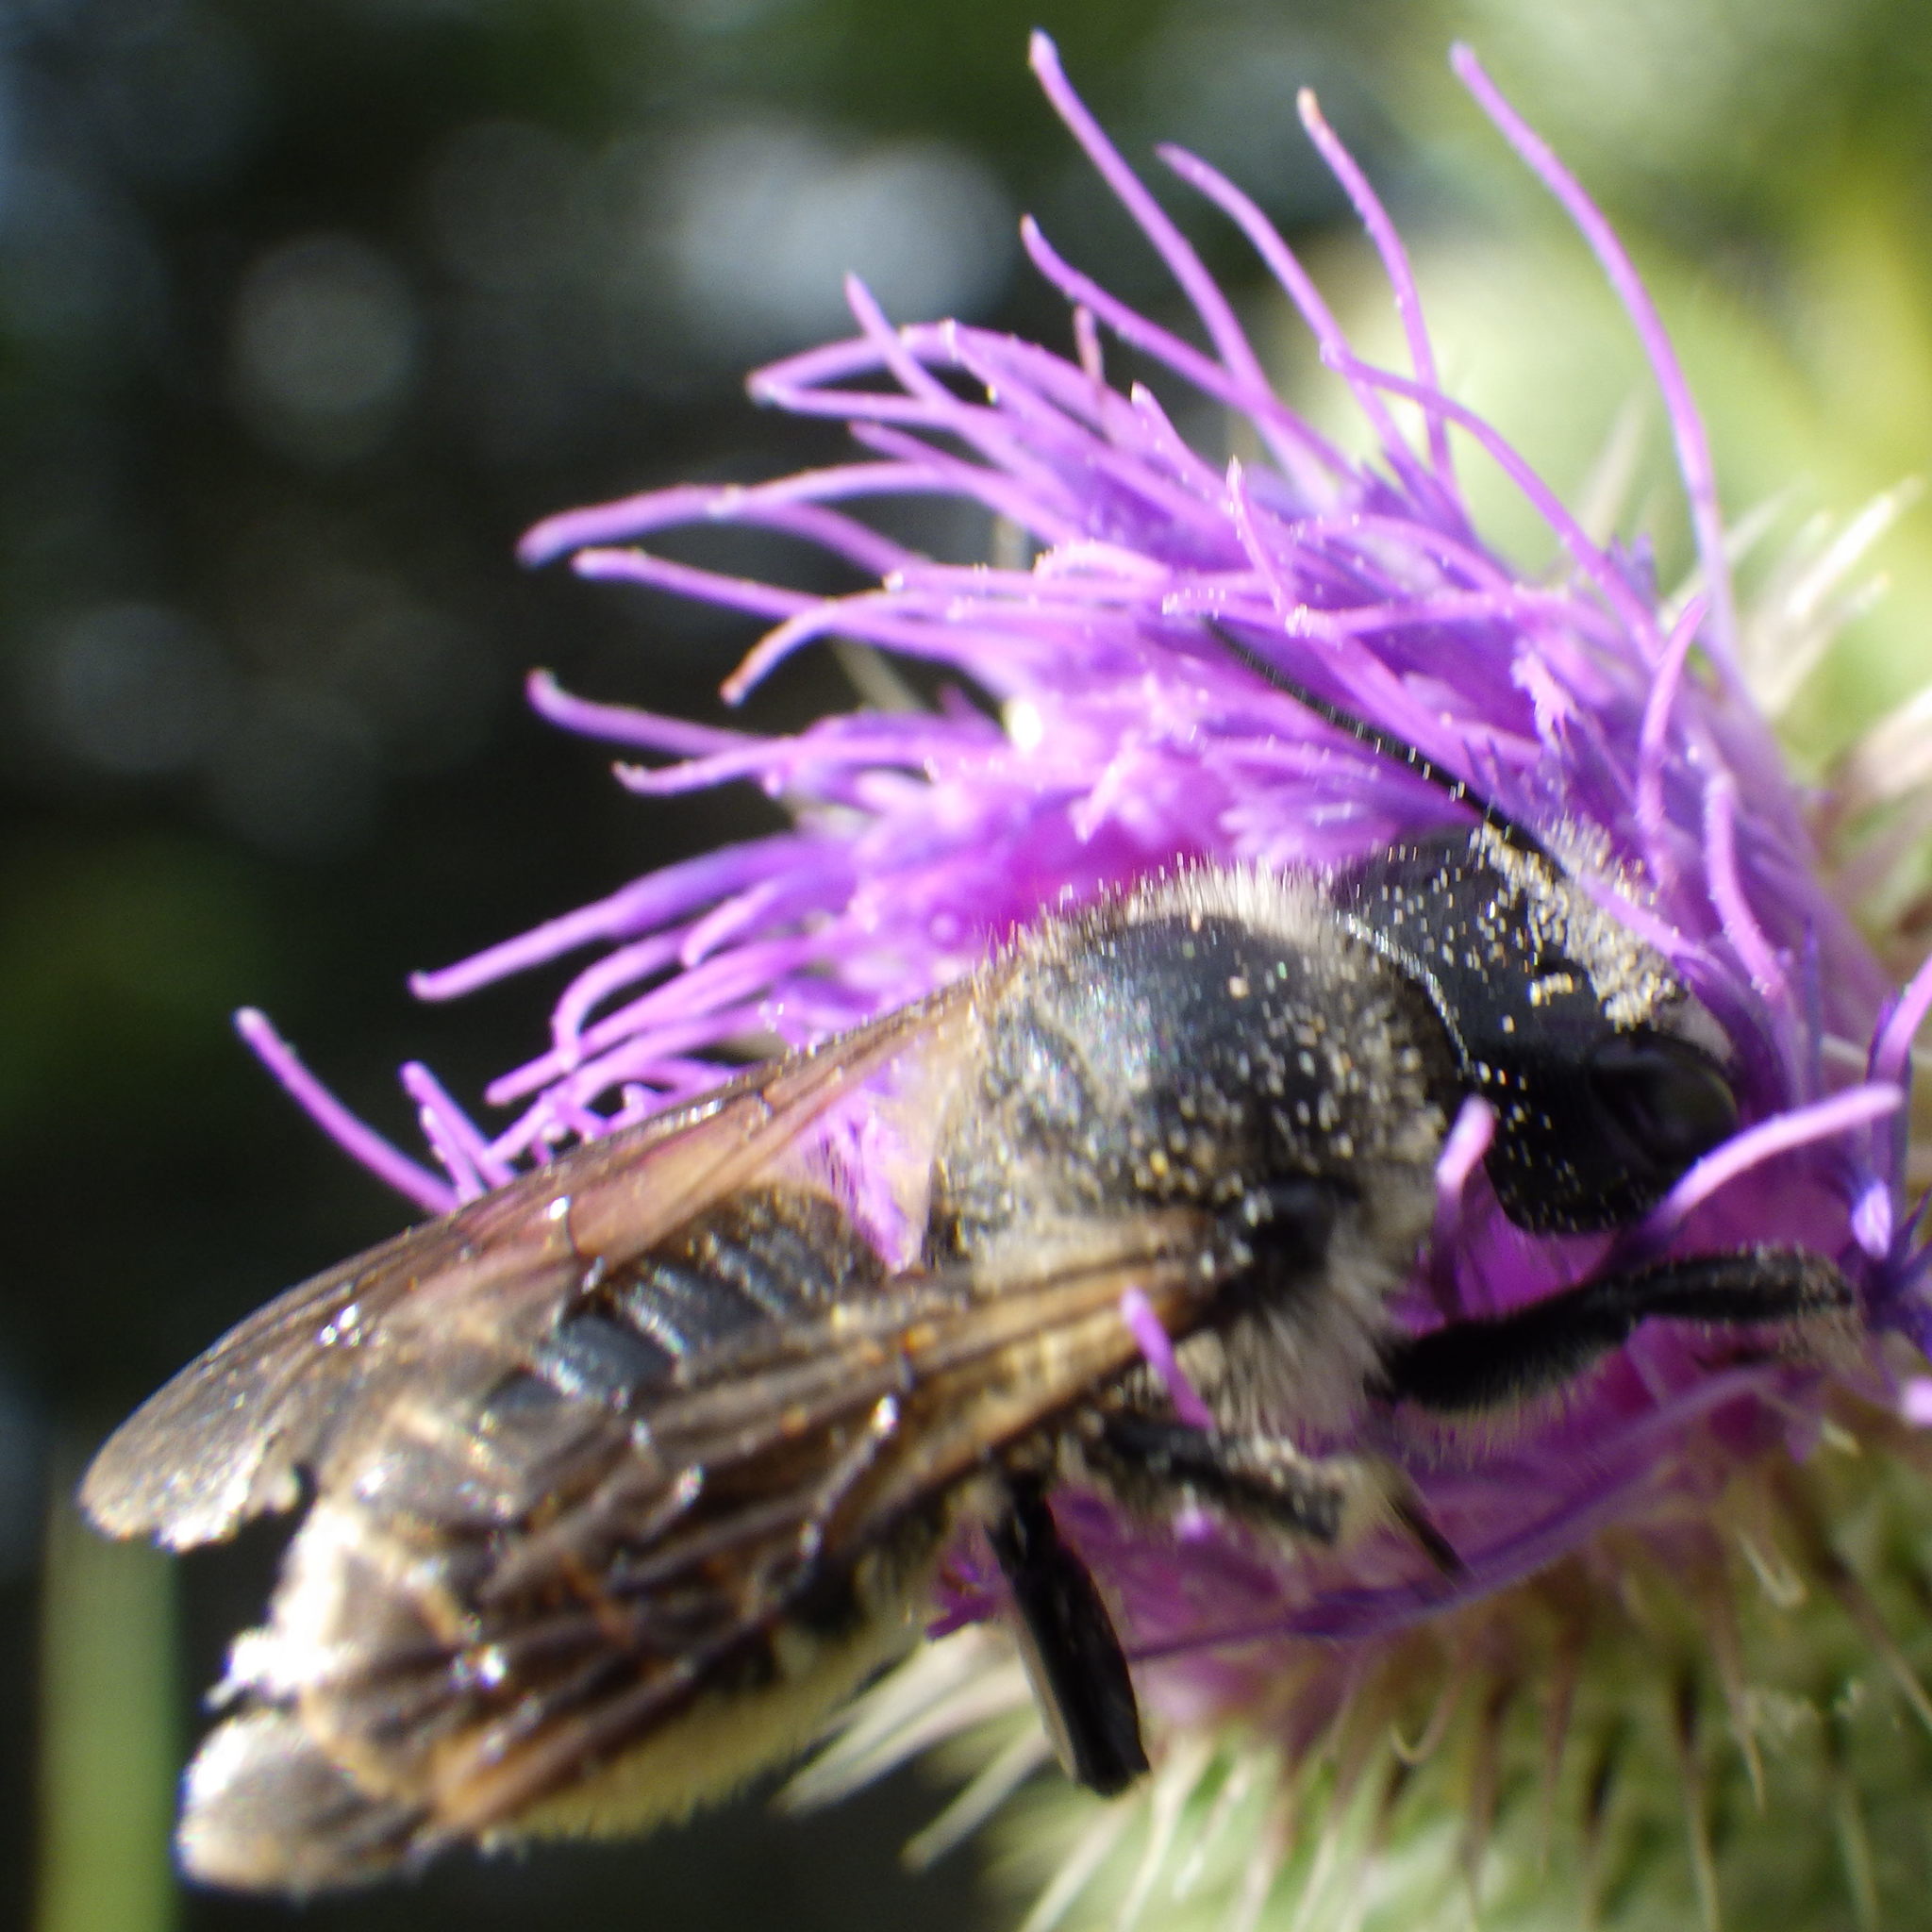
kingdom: Animalia
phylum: Arthropoda
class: Insecta
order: Hymenoptera
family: Megachilidae
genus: Megachile
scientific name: Megachile inermis
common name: Unarmed leafcutter bee
